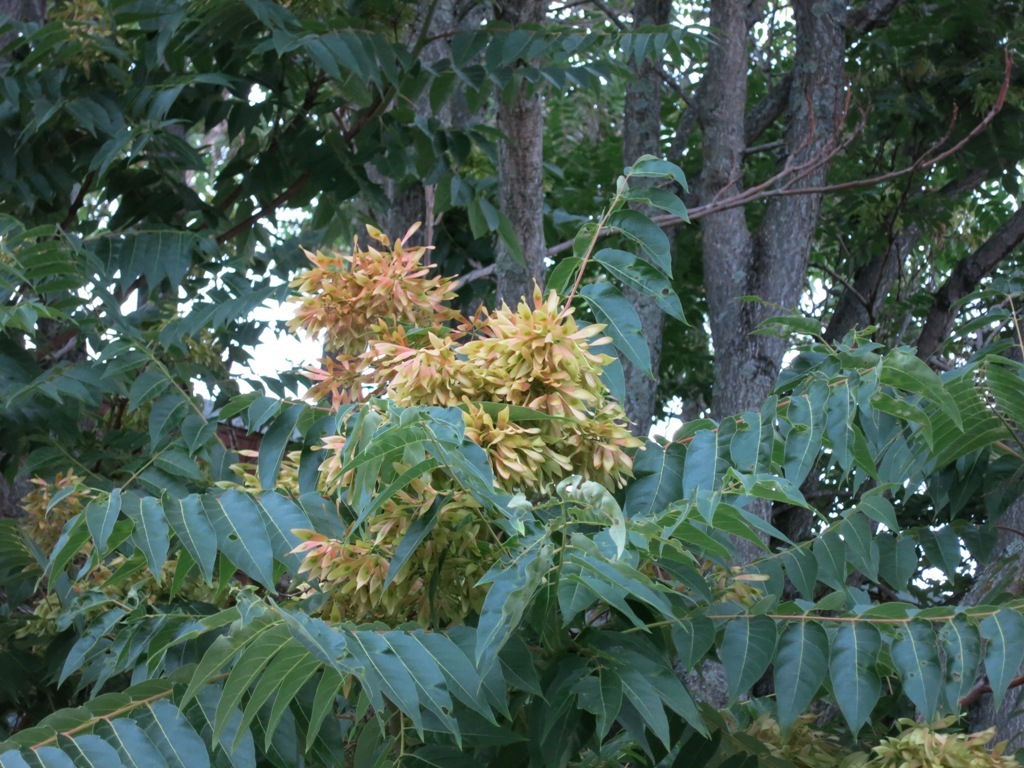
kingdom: Plantae
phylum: Tracheophyta
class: Magnoliopsida
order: Sapindales
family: Simaroubaceae
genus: Ailanthus
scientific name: Ailanthus altissima
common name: Tree-of-heaven
